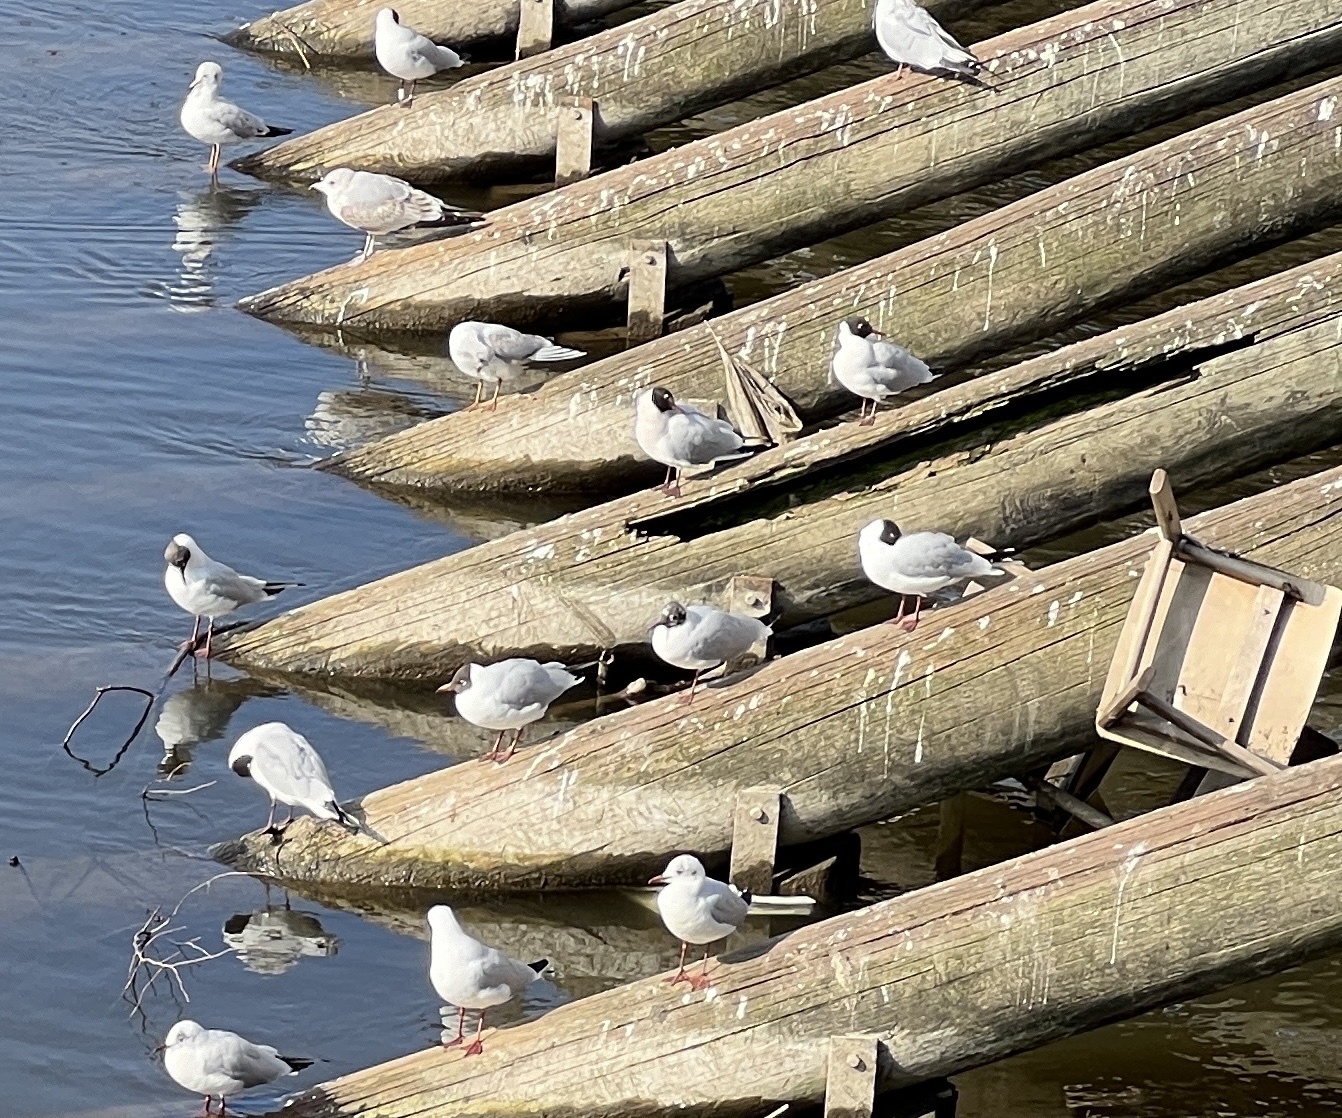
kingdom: Animalia
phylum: Chordata
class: Aves
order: Charadriiformes
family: Laridae
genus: Chroicocephalus
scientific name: Chroicocephalus ridibundus
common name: Black-headed gull
